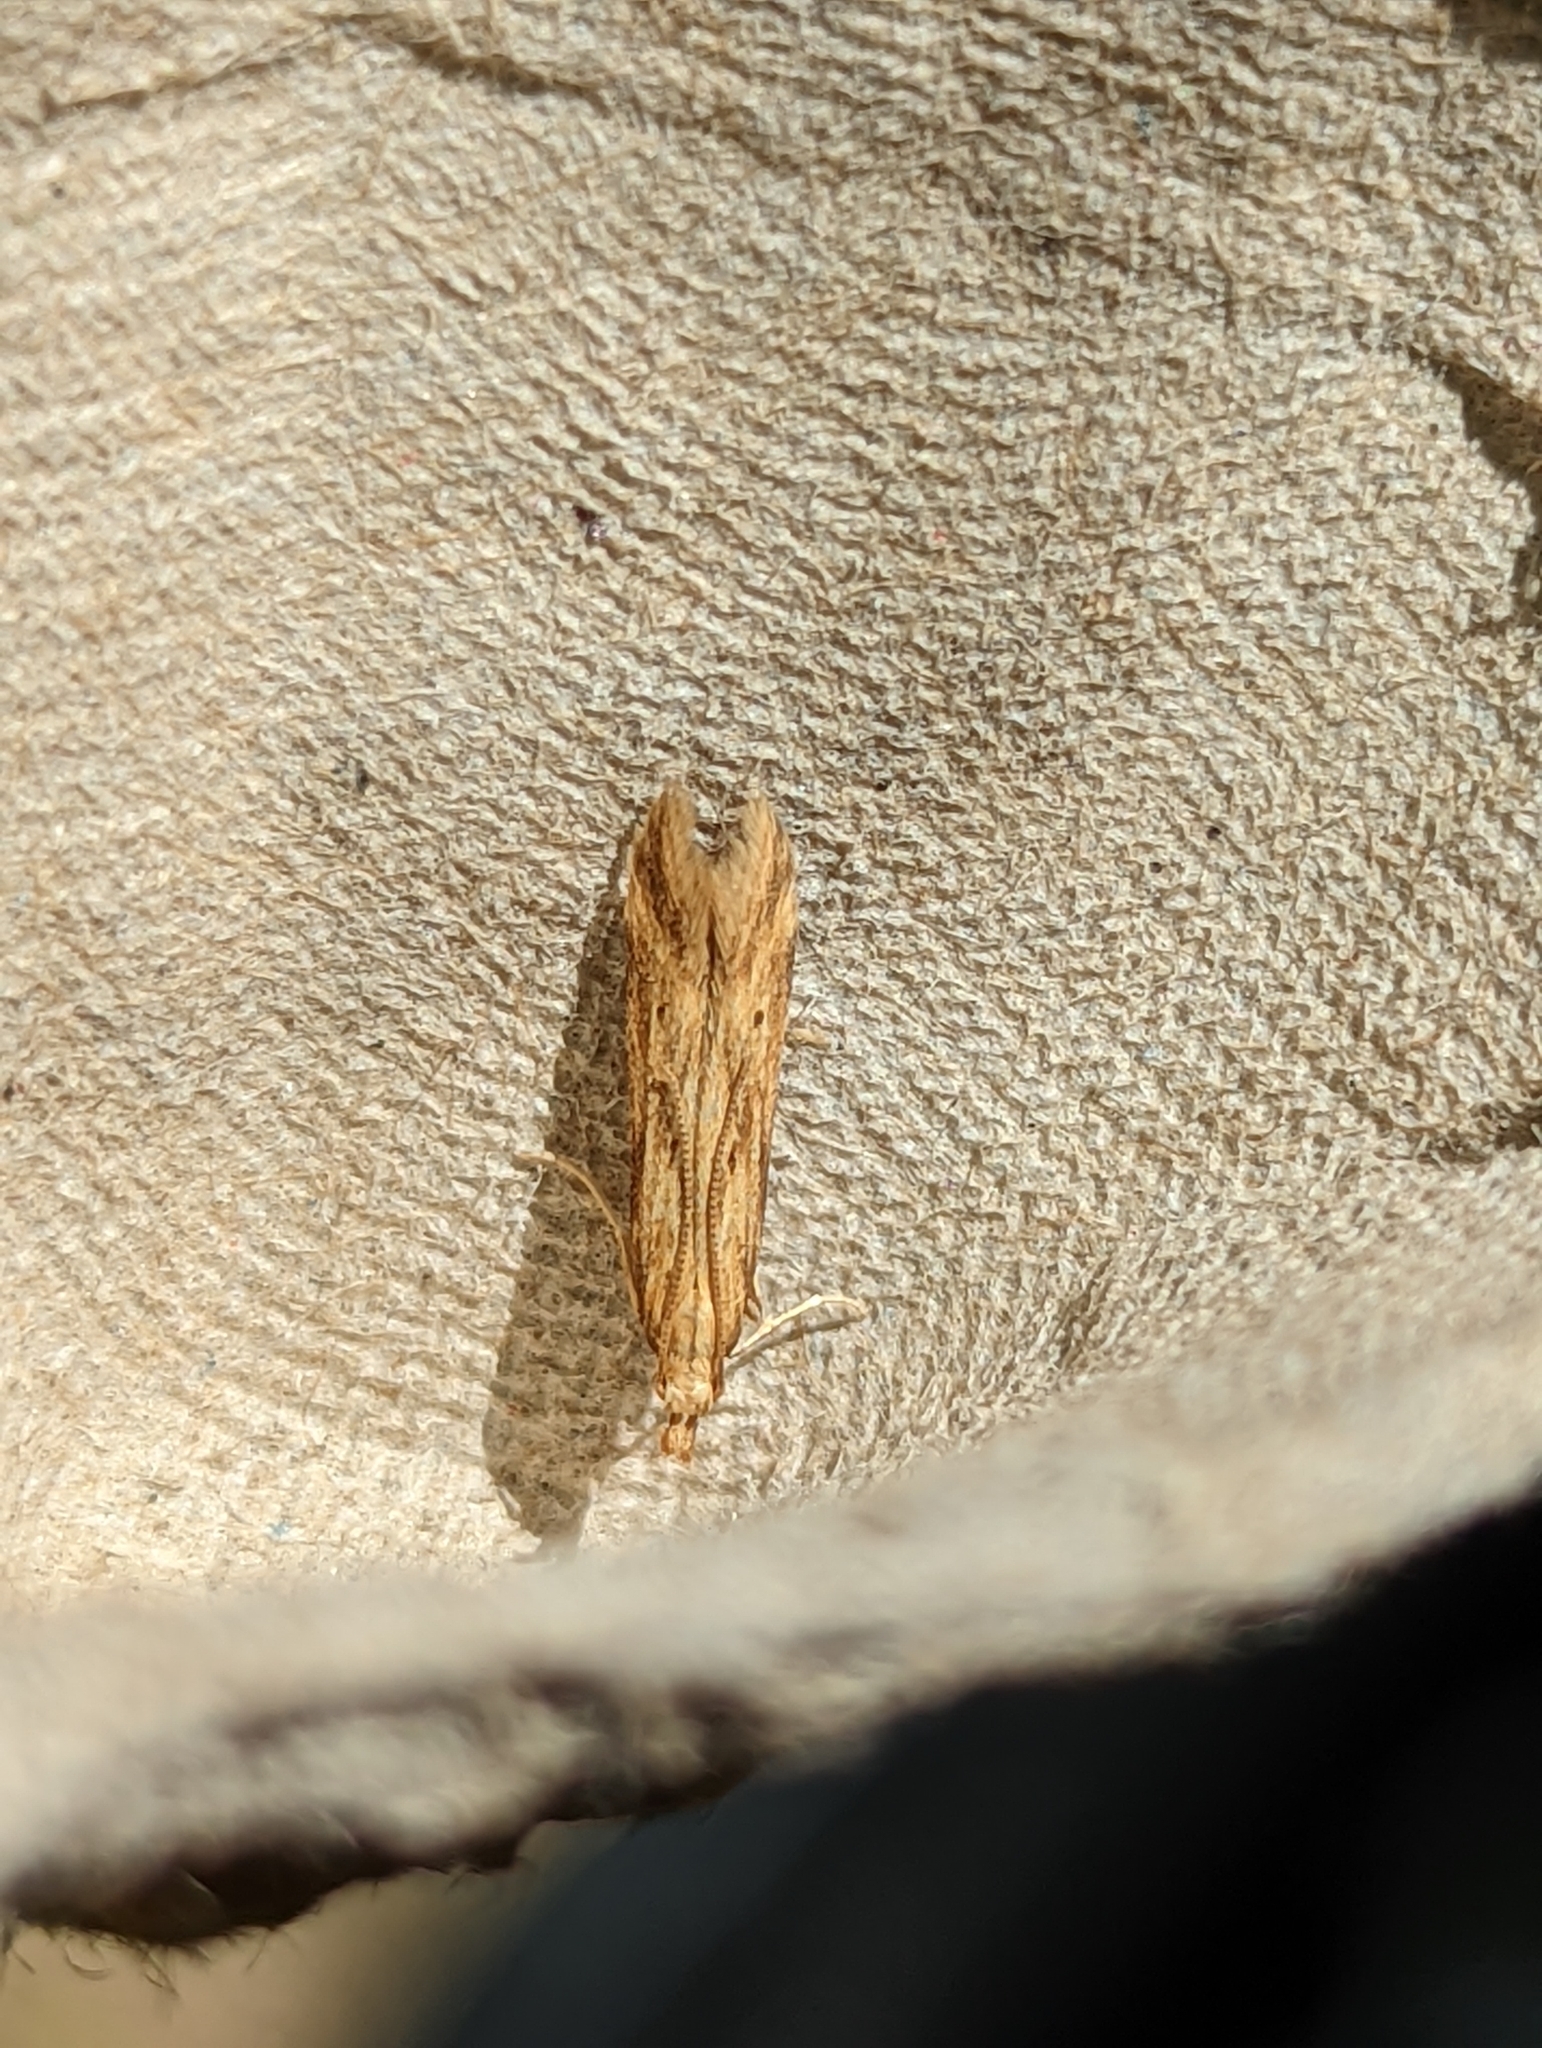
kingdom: Animalia
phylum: Arthropoda
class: Insecta
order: Lepidoptera
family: Gelechiidae
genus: Metzneria
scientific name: Metzneria lappella
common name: Burdock neb
